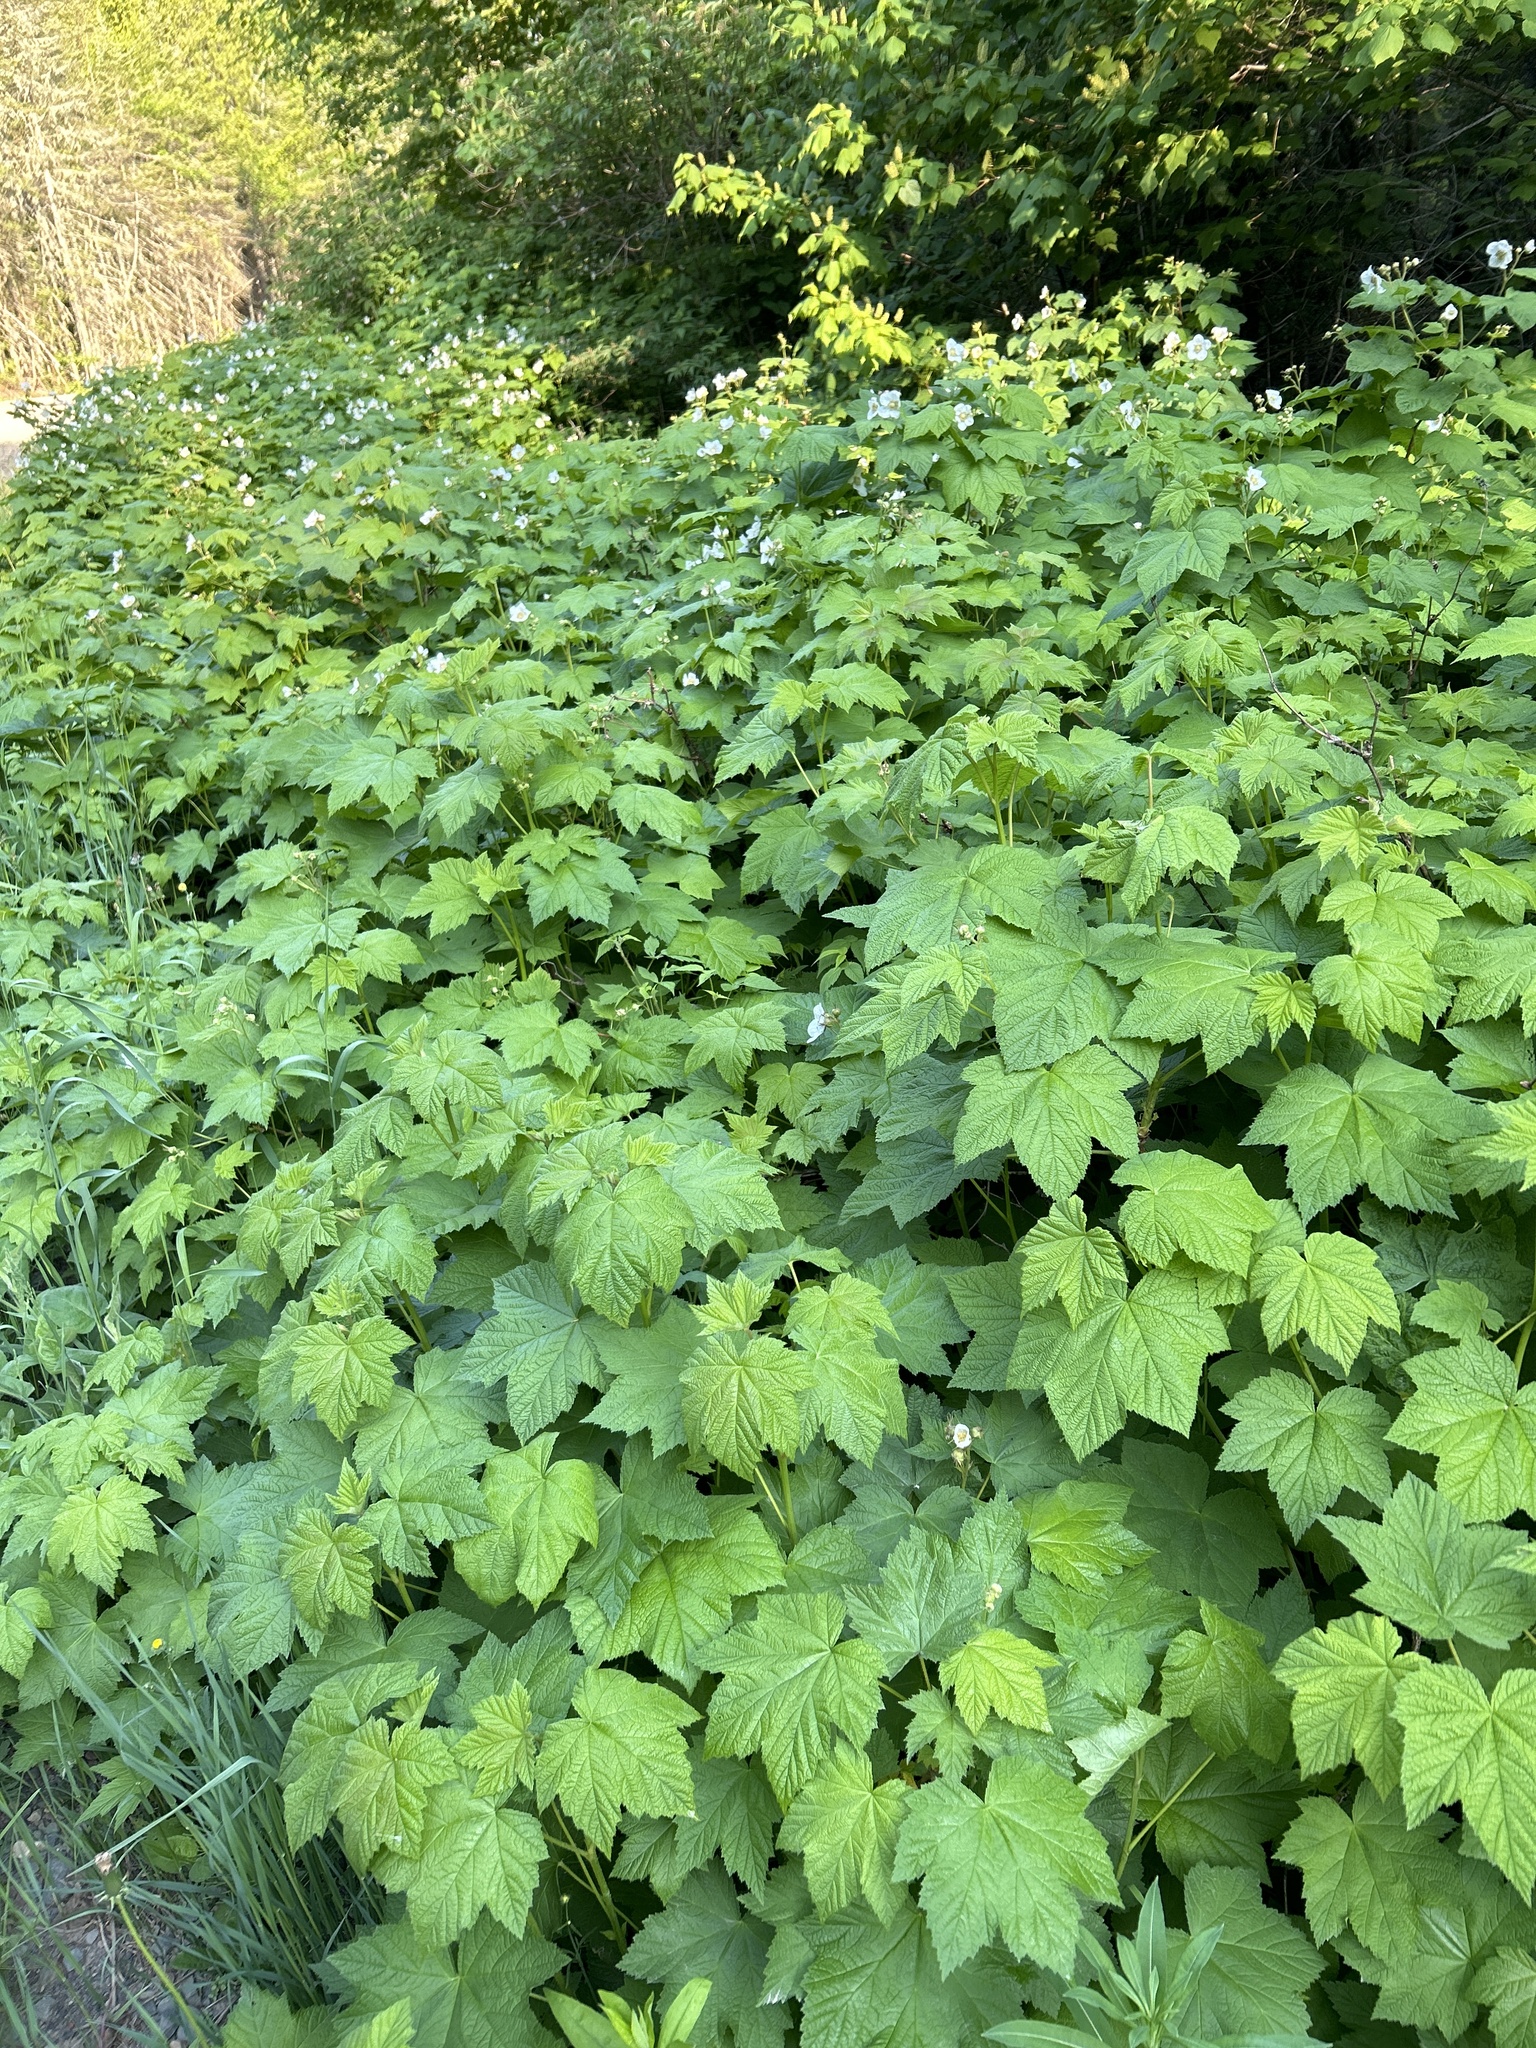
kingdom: Plantae
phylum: Tracheophyta
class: Magnoliopsida
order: Rosales
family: Rosaceae
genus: Rubus
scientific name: Rubus parviflorus
